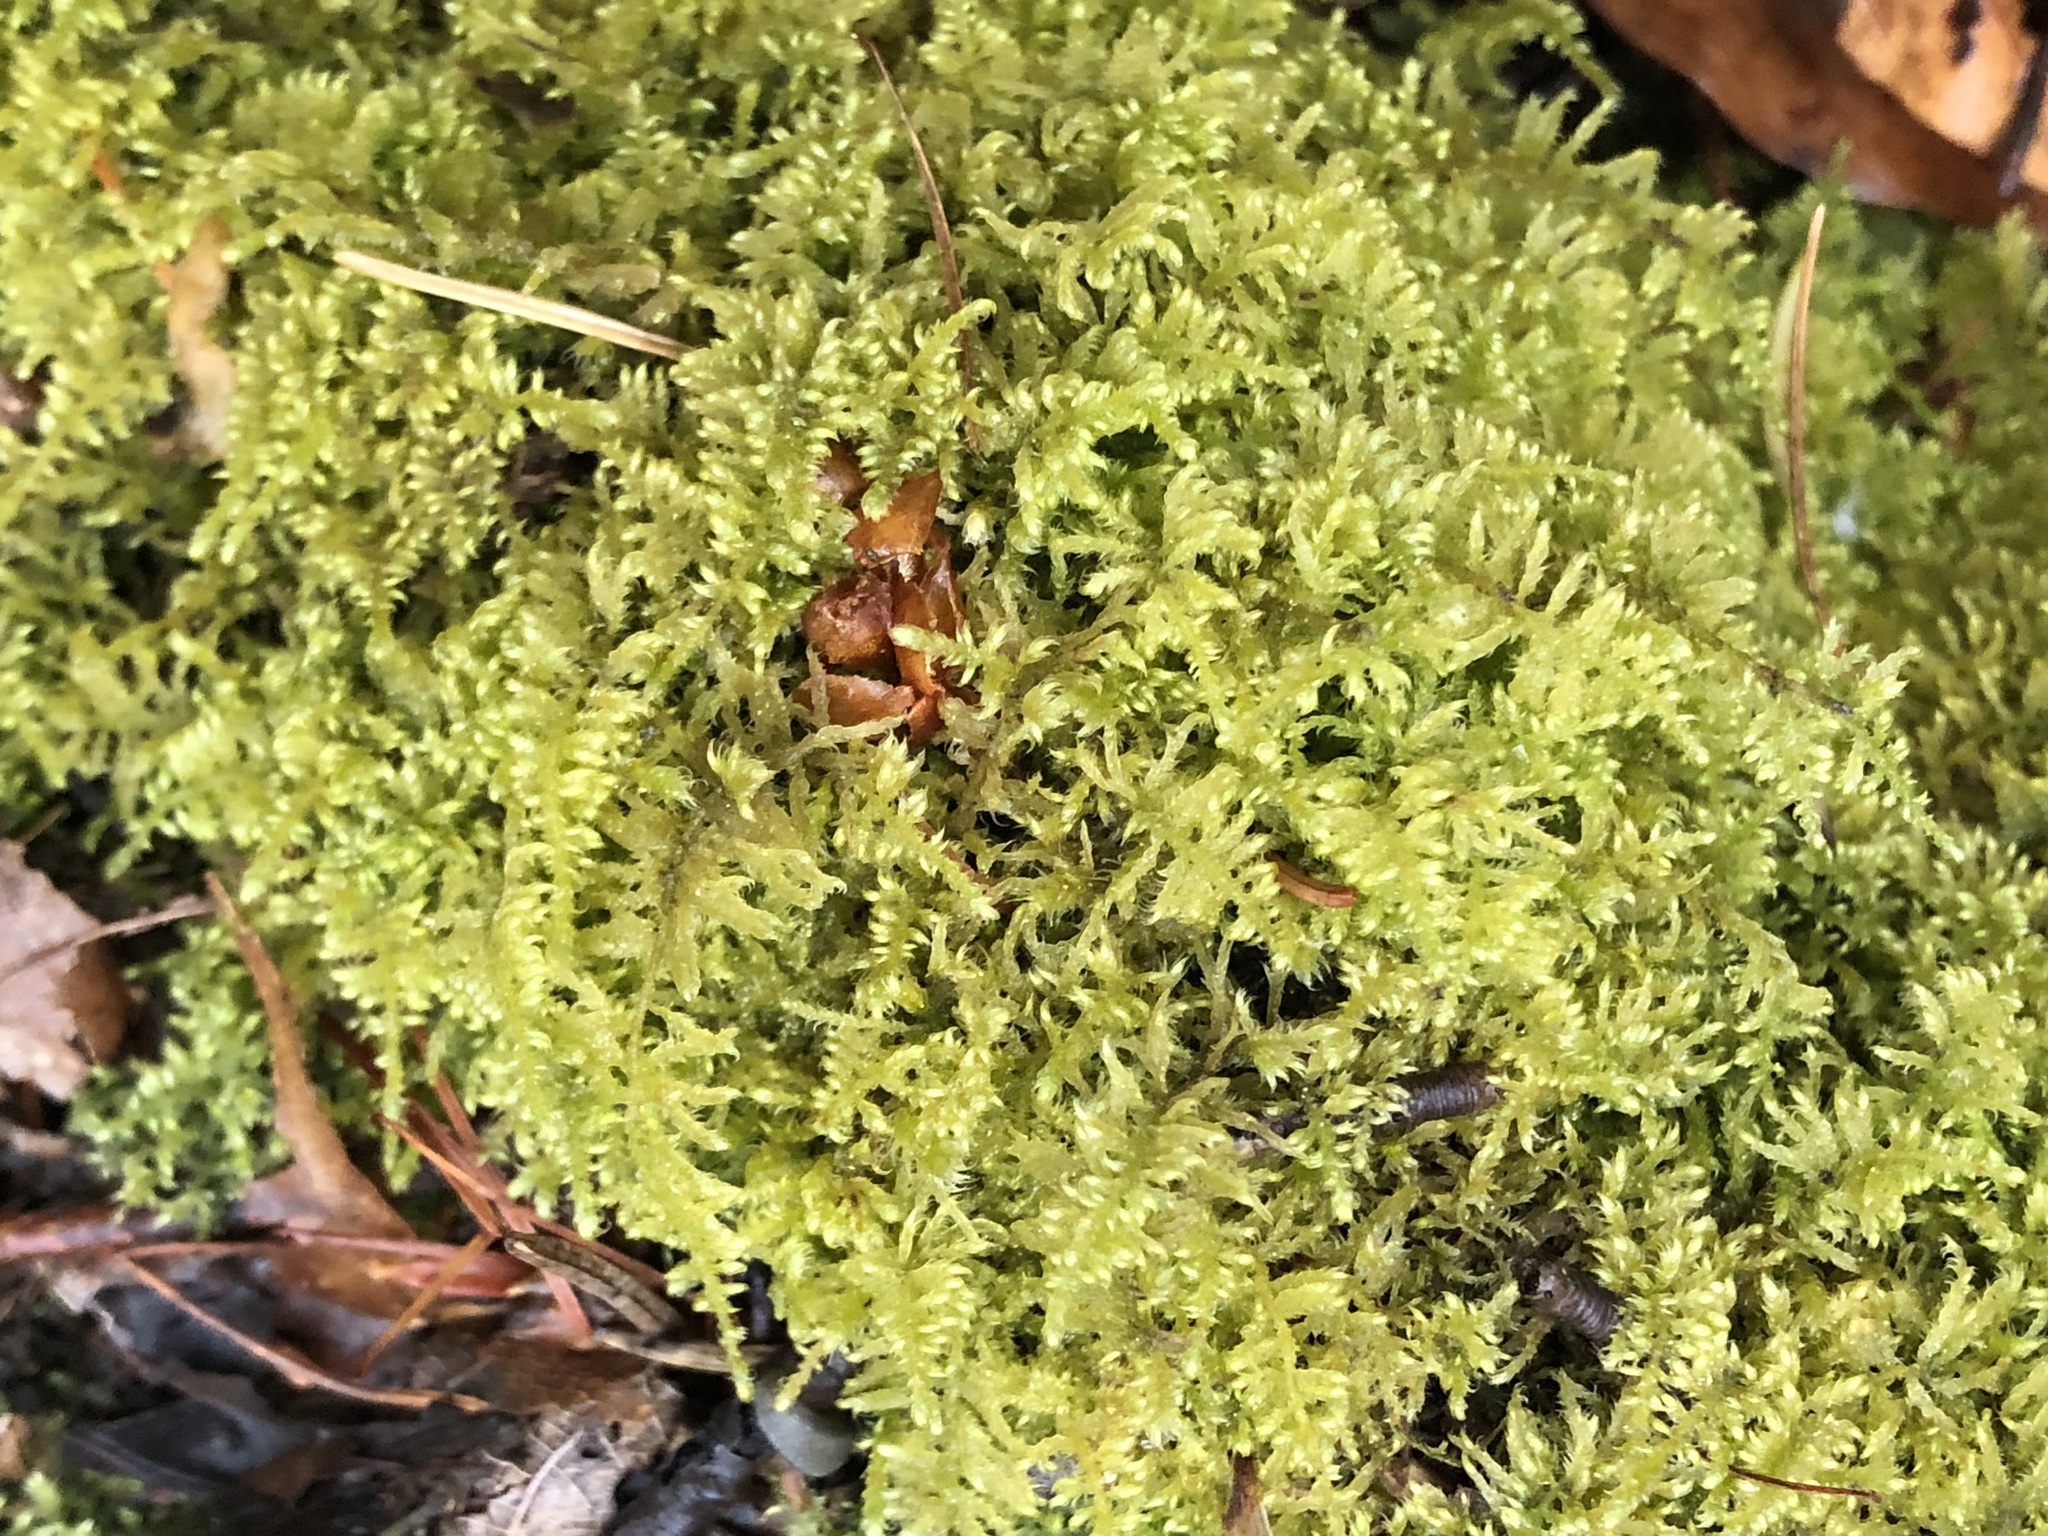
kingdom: Plantae
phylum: Bryophyta
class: Bryopsida
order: Hypnales
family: Myuriaceae
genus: Ctenidium
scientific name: Ctenidium molluscum
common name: Chalk comb-moss
